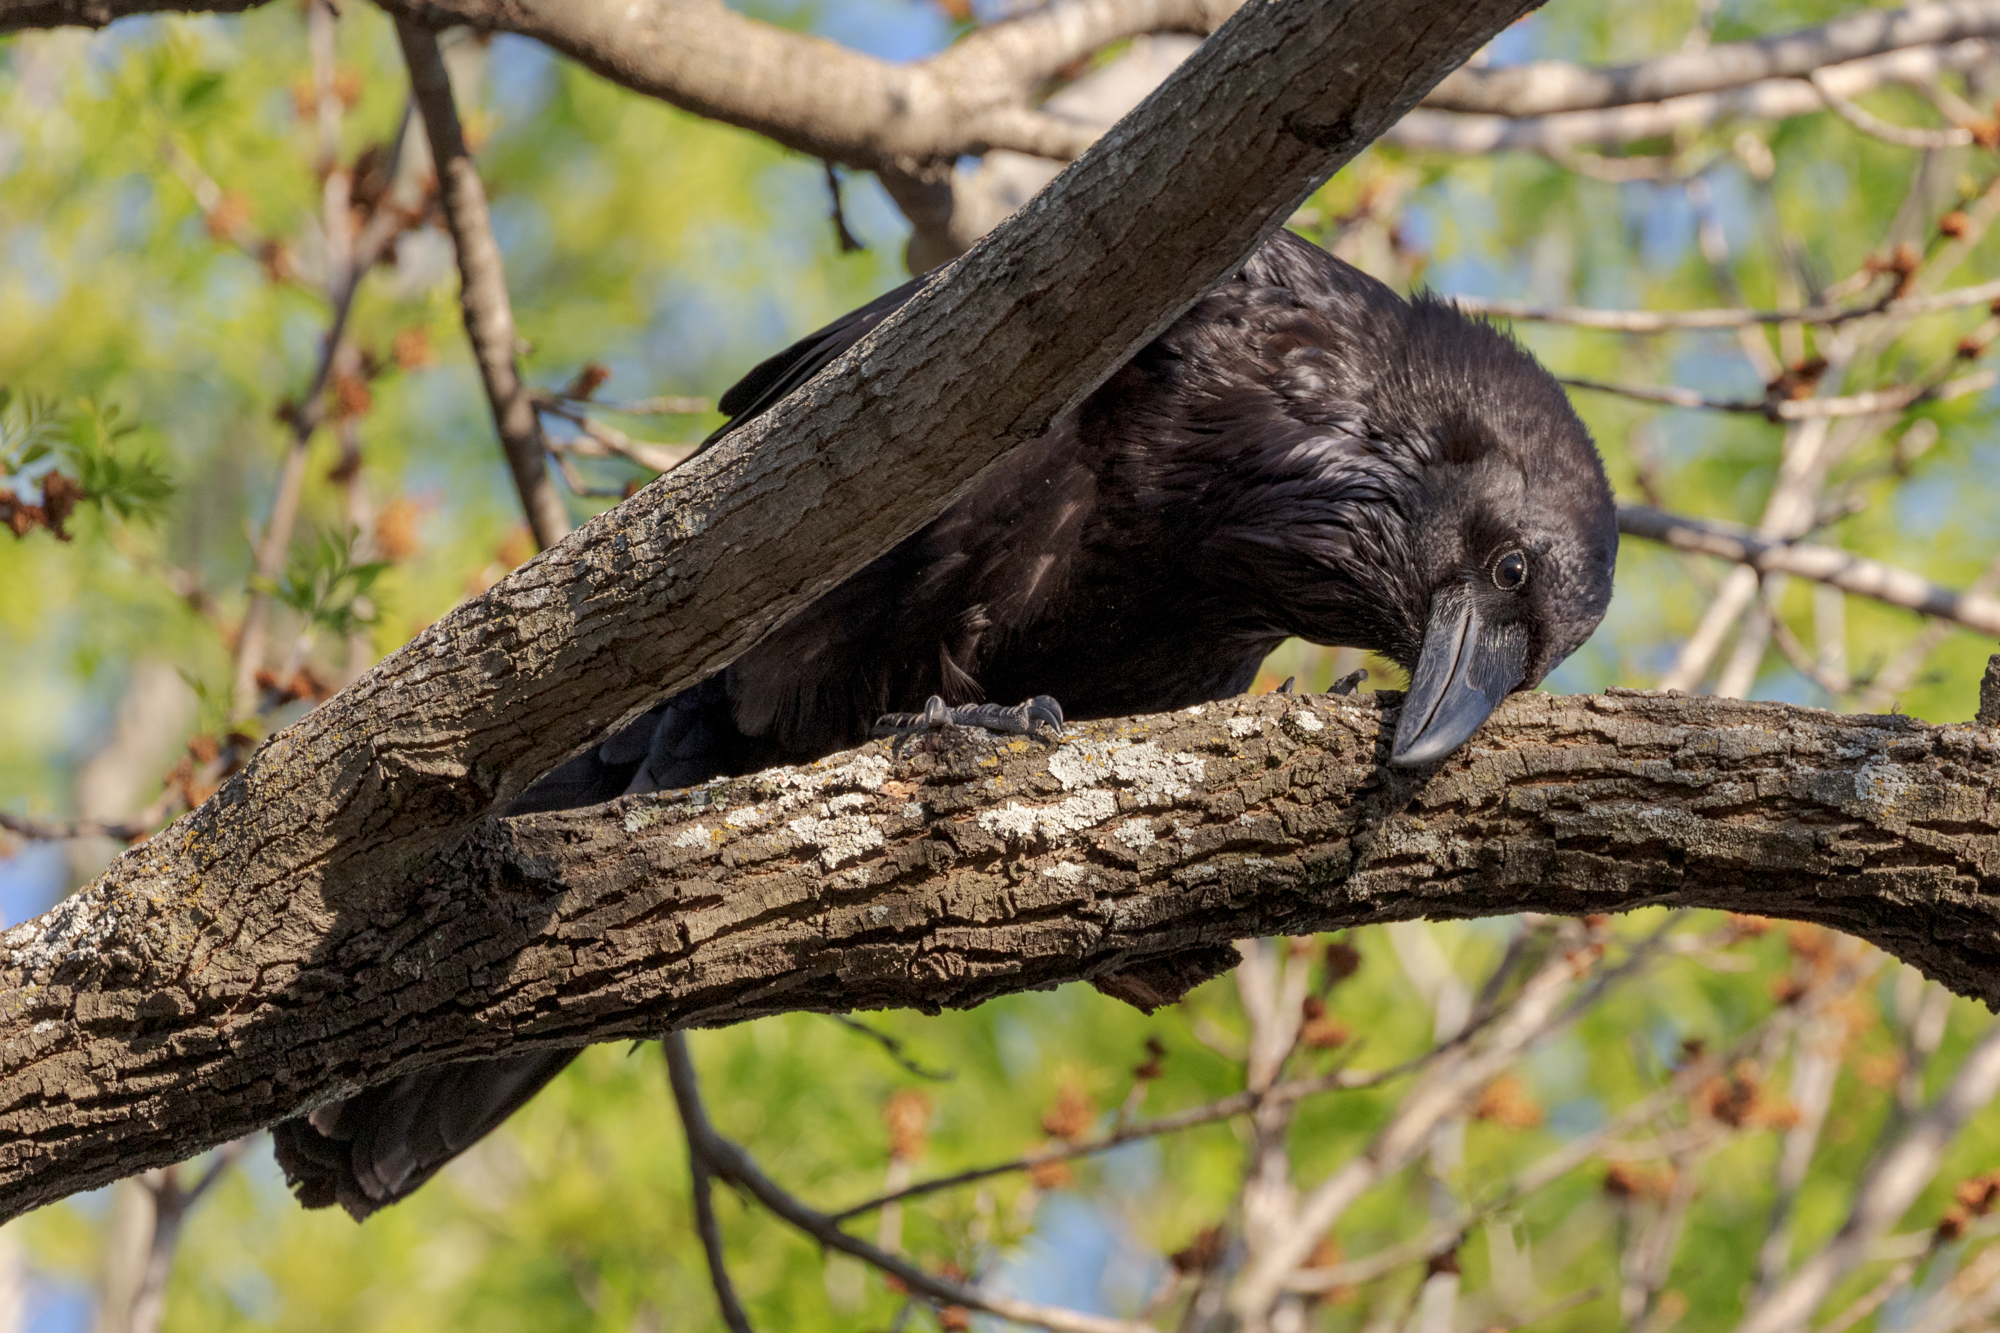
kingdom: Animalia
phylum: Chordata
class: Aves
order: Passeriformes
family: Corvidae
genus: Corvus
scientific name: Corvus corax
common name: Common raven
